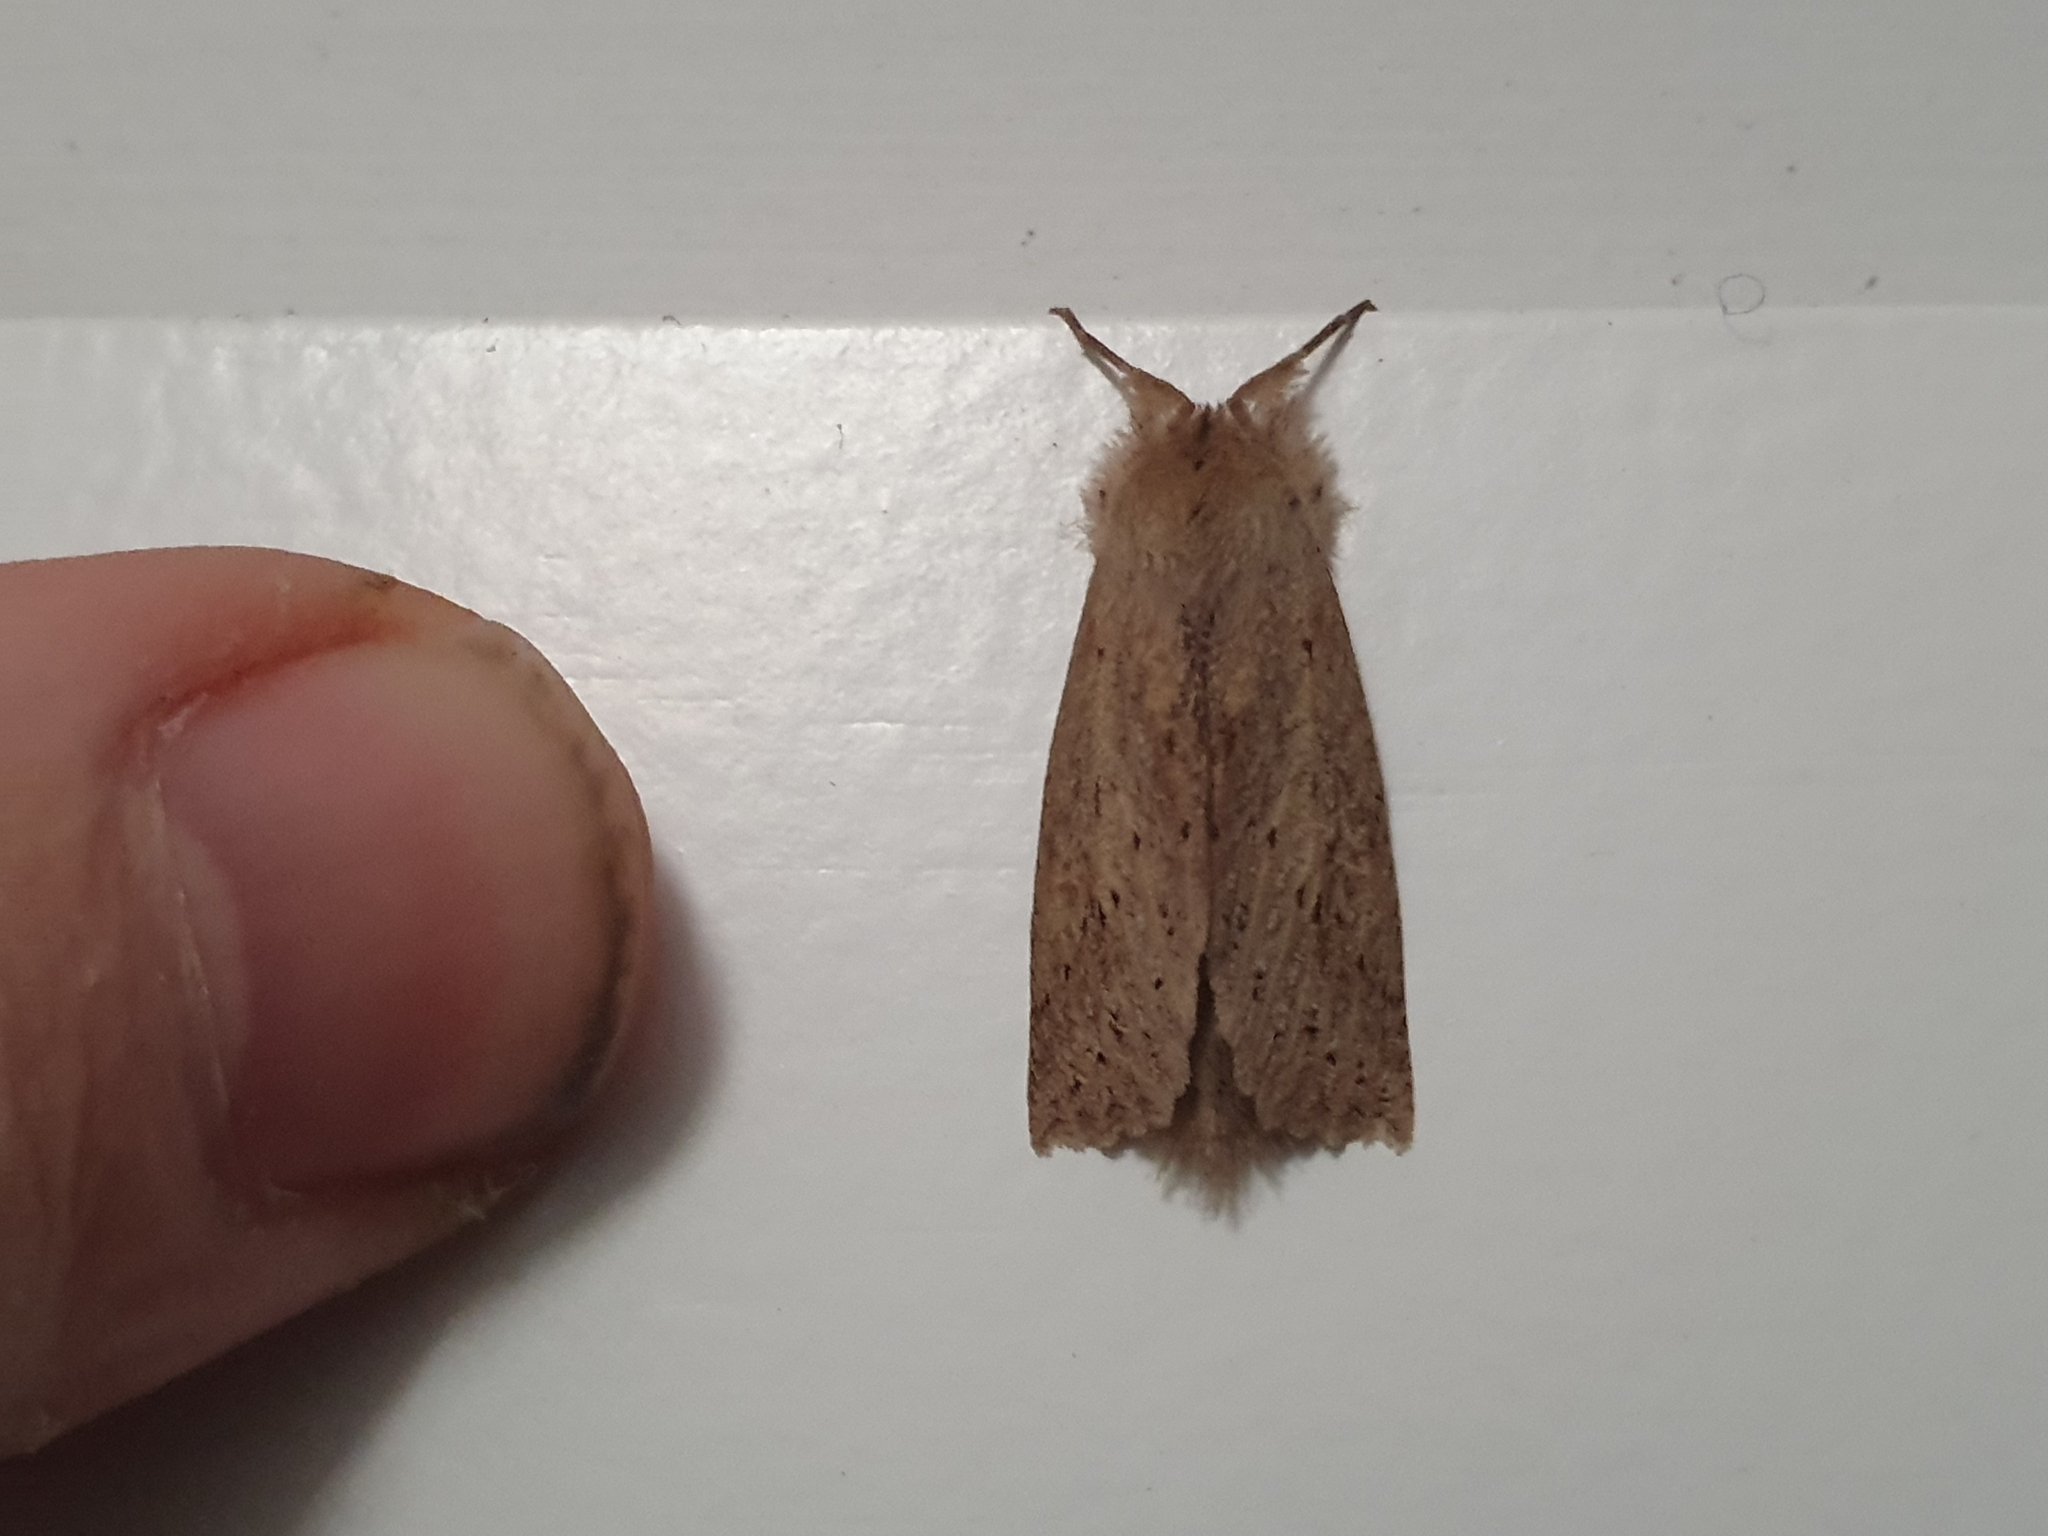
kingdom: Animalia
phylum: Arthropoda
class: Insecta
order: Lepidoptera
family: Geometridae
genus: Declana
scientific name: Declana leptomera
